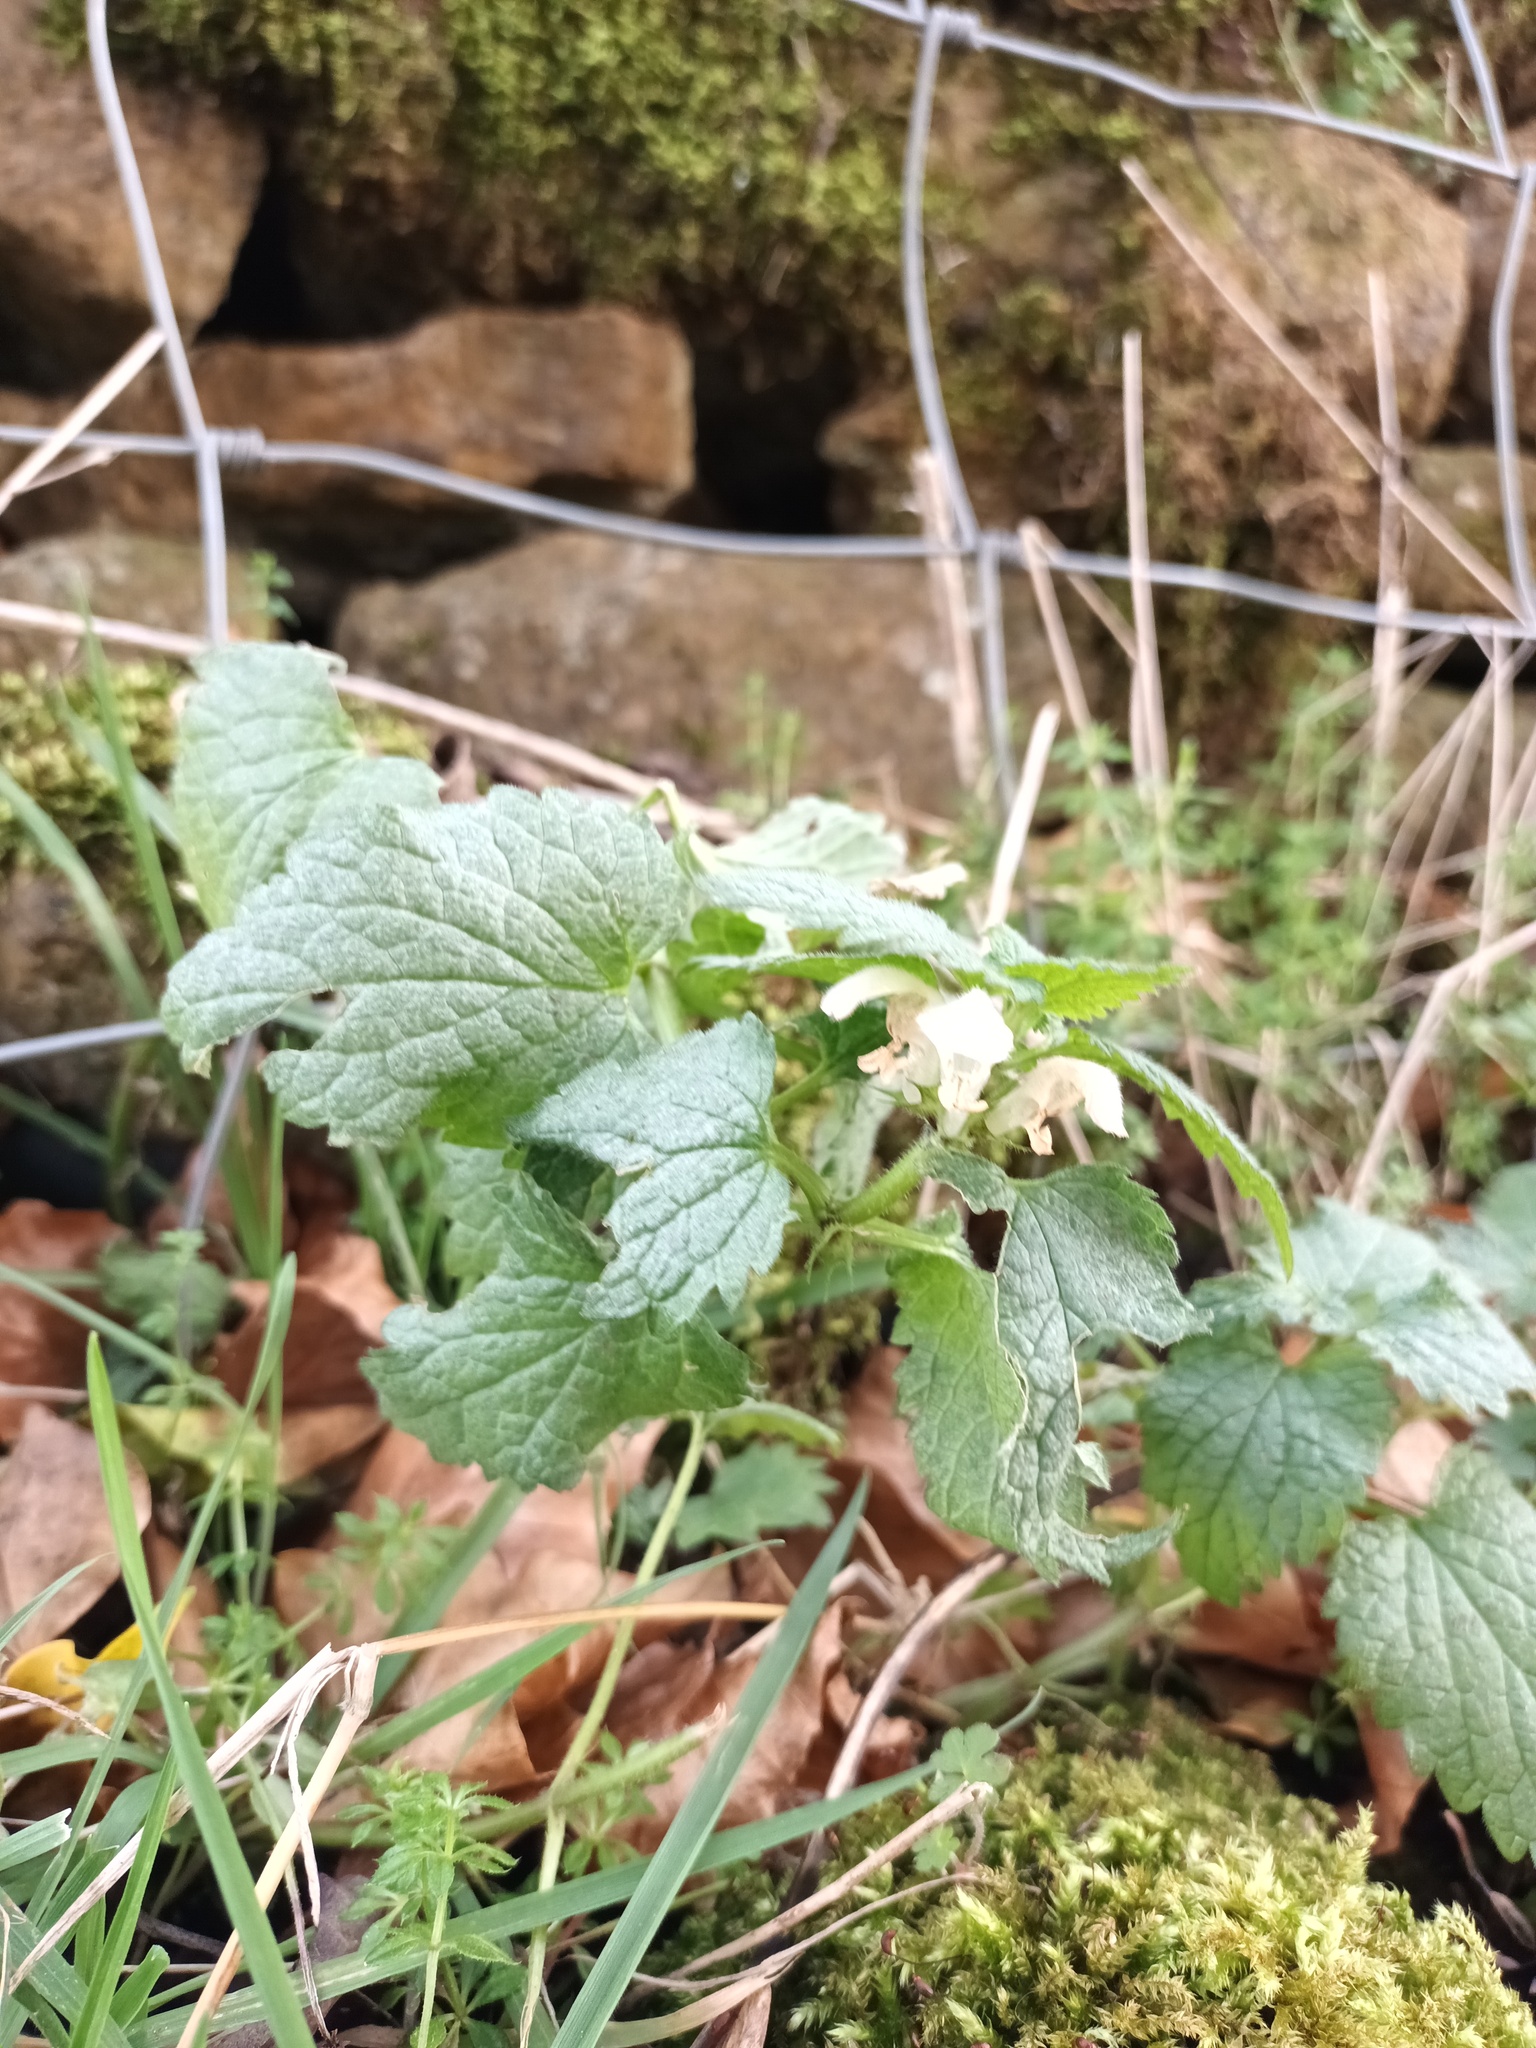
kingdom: Plantae
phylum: Tracheophyta
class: Magnoliopsida
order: Lamiales
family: Lamiaceae
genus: Lamium
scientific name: Lamium album
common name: White dead-nettle
